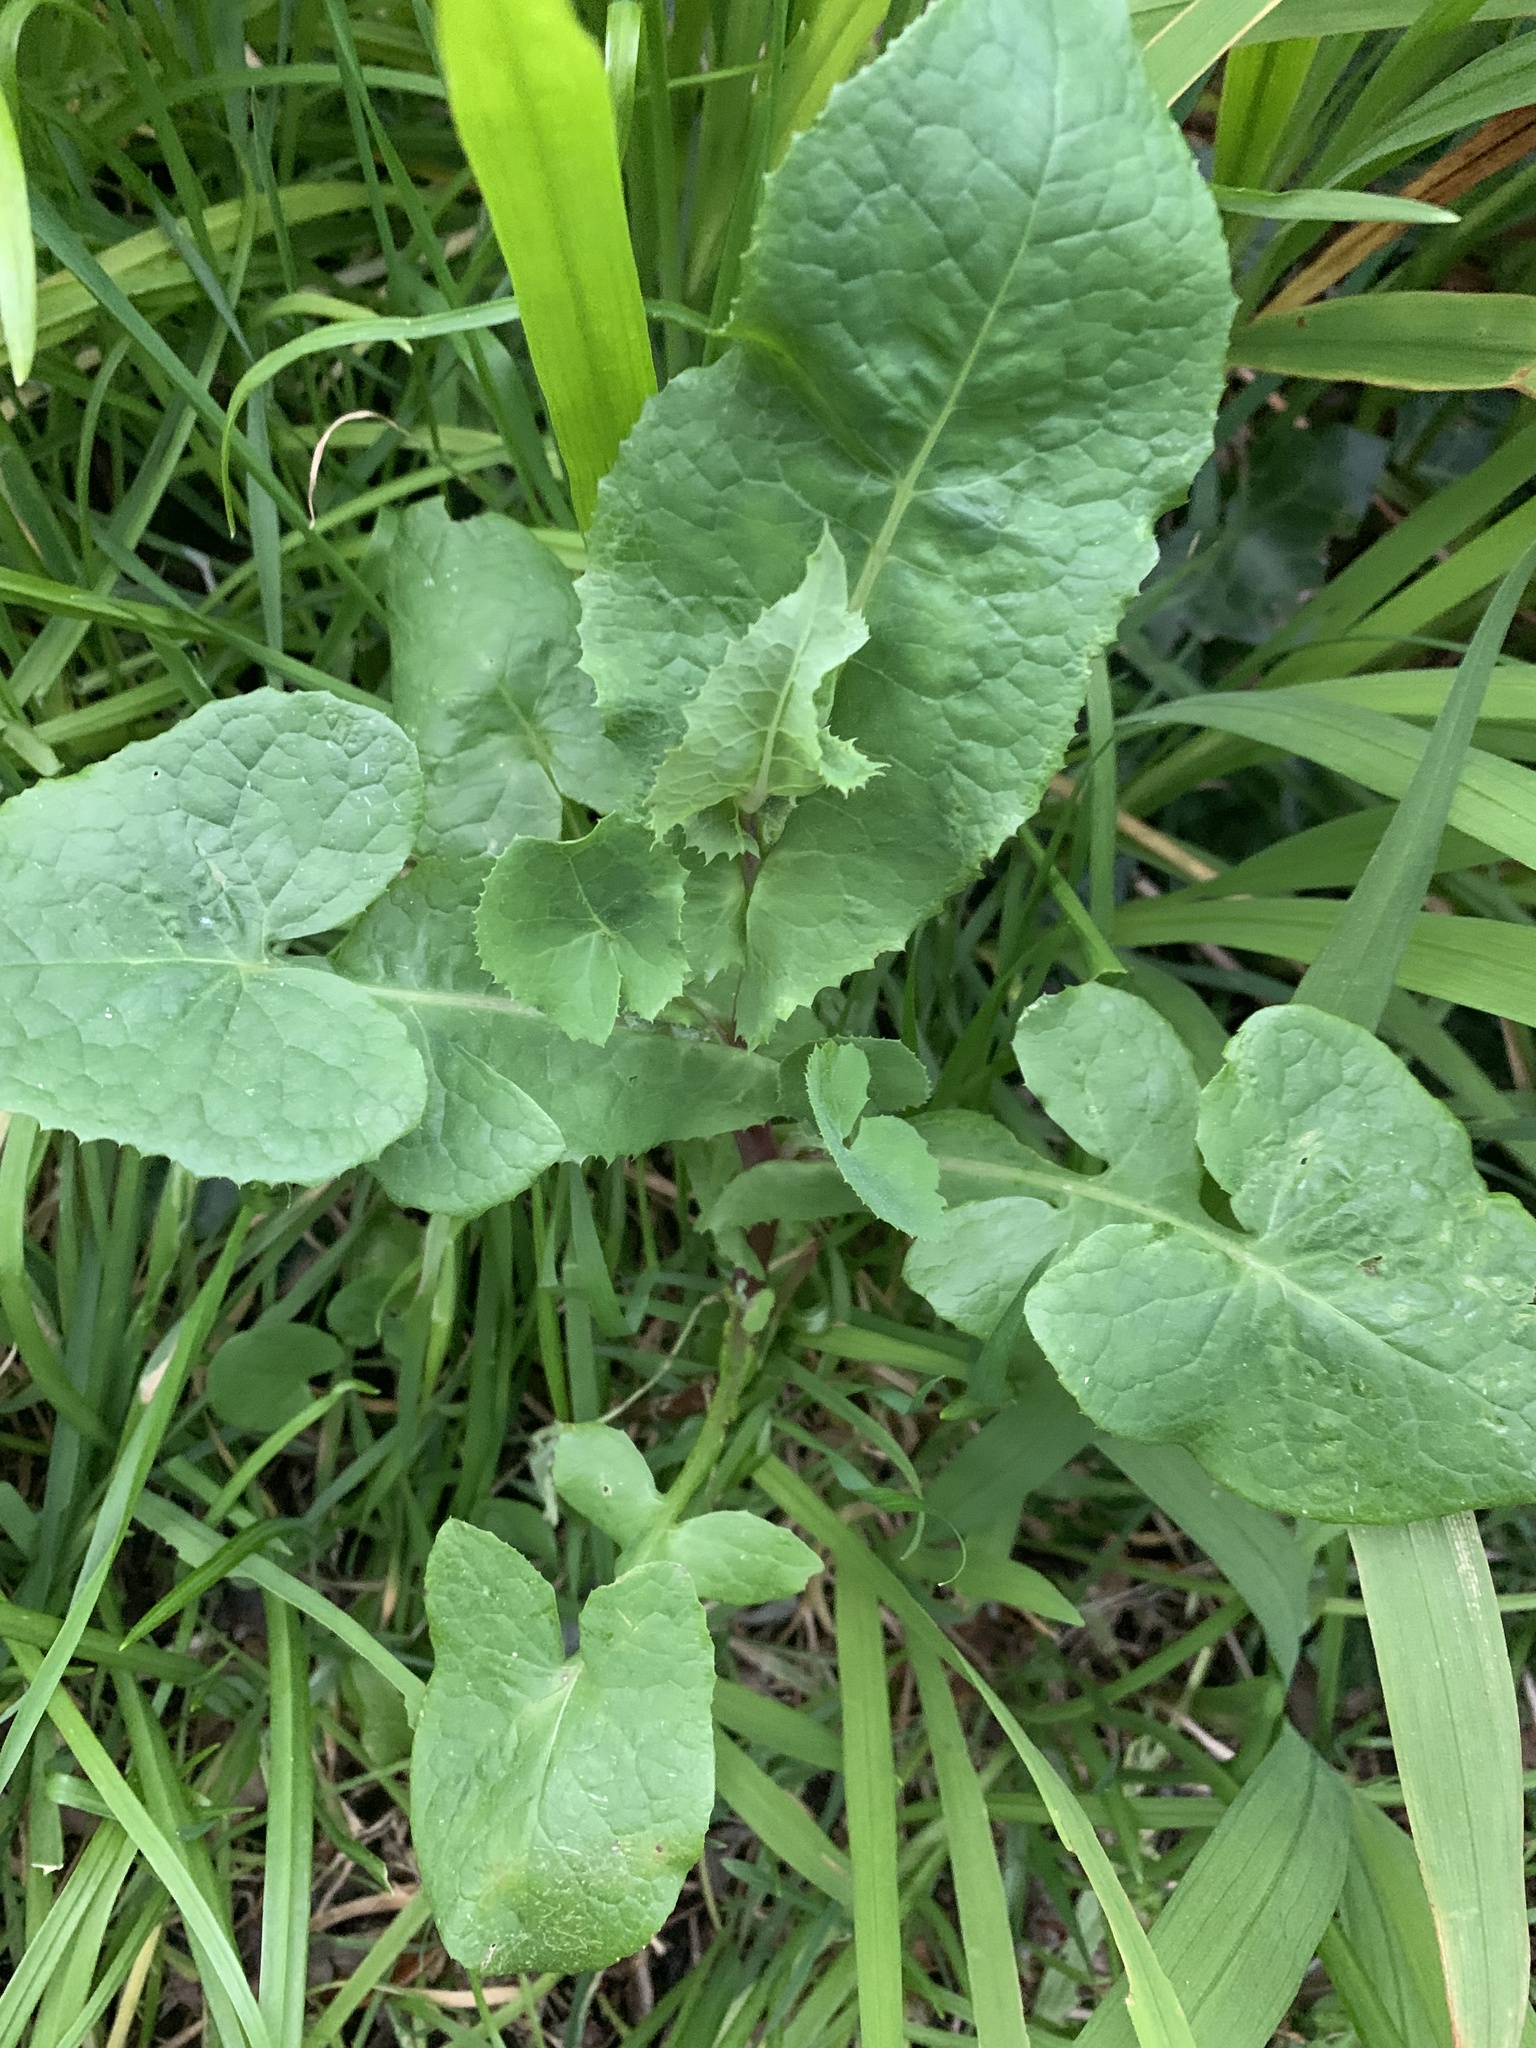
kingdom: Plantae
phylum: Tracheophyta
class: Magnoliopsida
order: Asterales
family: Asteraceae
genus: Sonchus
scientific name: Sonchus oleraceus
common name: Common sowthistle
